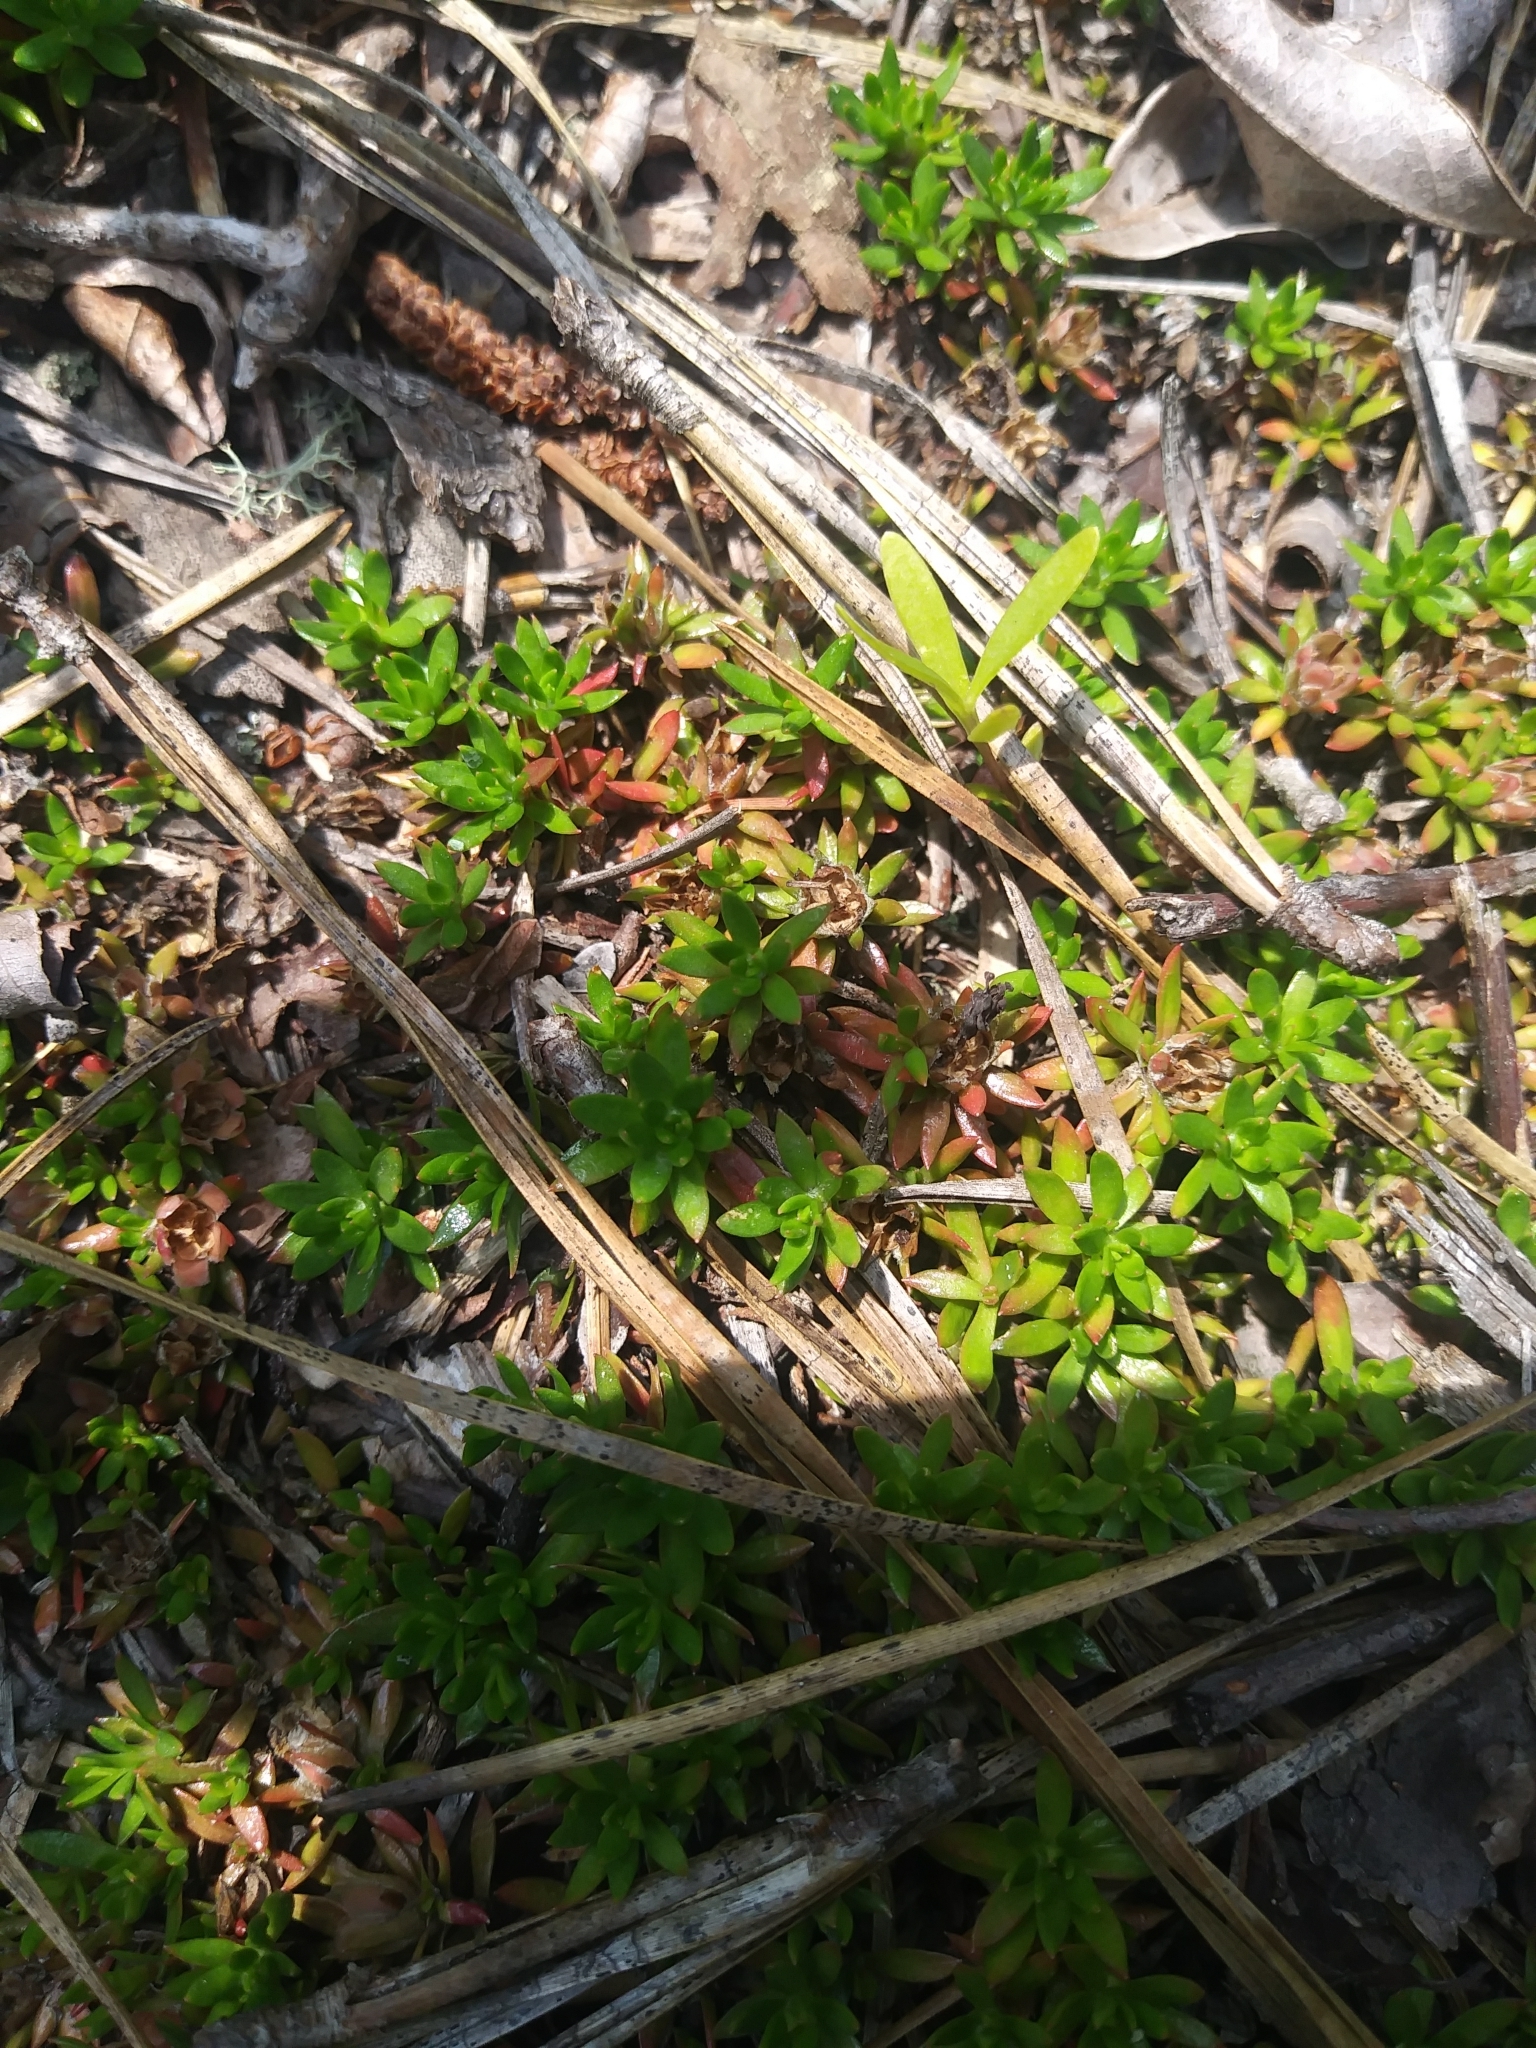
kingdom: Plantae
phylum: Tracheophyta
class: Magnoliopsida
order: Ericales
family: Diapensiaceae
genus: Pyxidanthera
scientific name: Pyxidanthera barbulata
